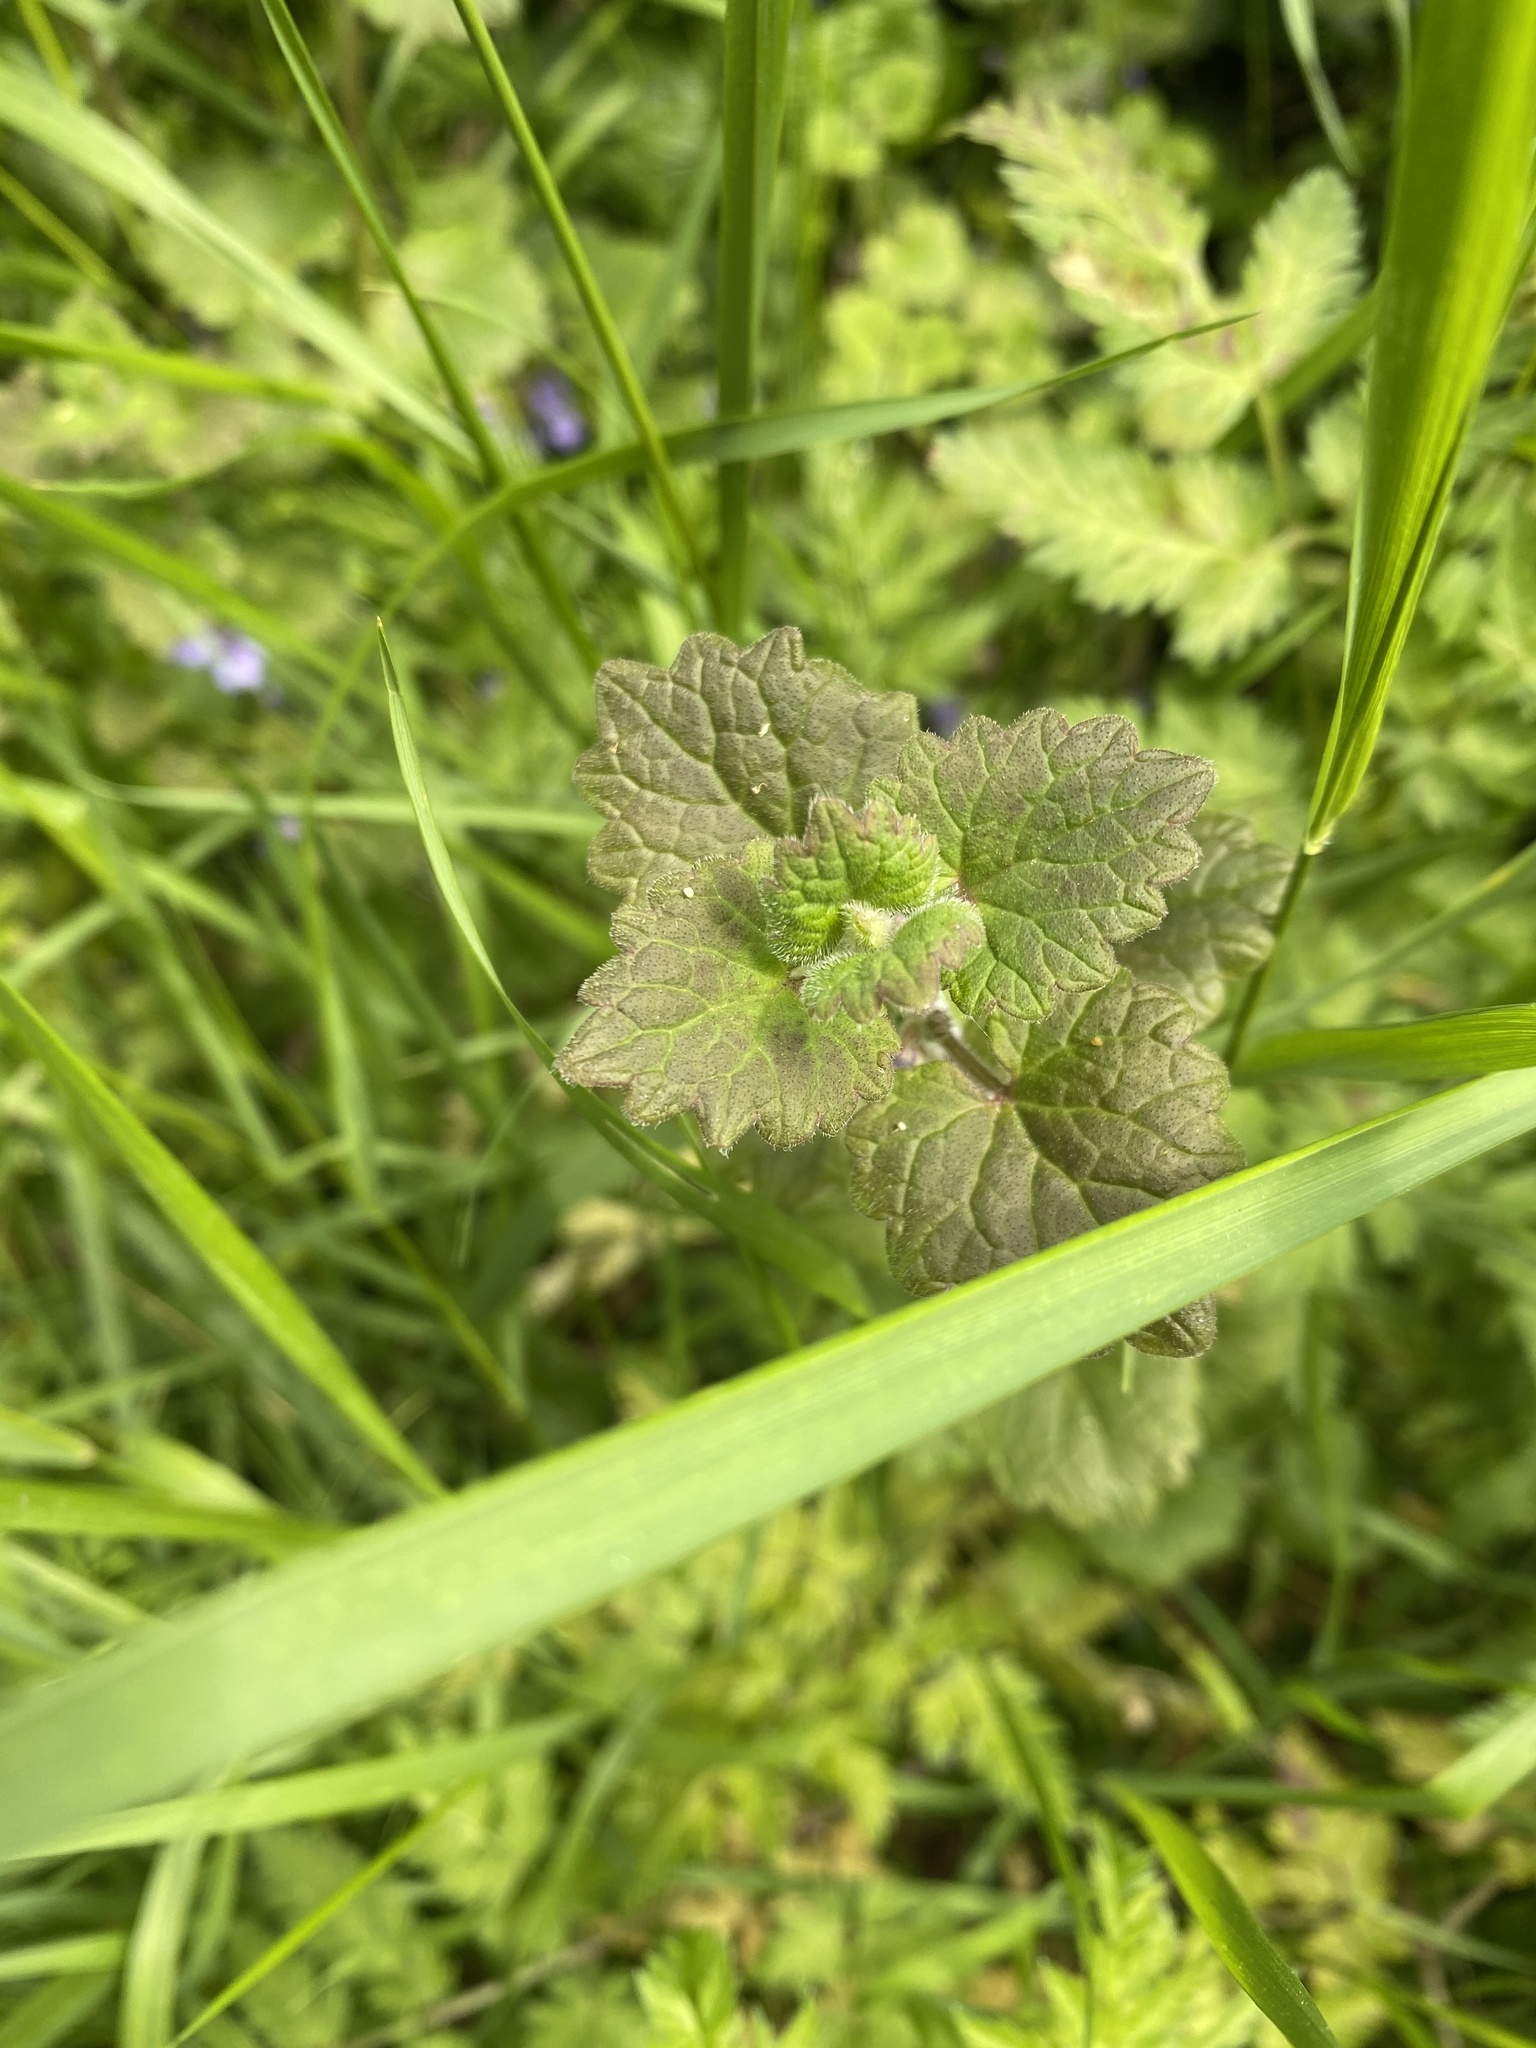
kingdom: Plantae
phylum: Tracheophyta
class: Magnoliopsida
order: Lamiales
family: Lamiaceae
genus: Glechoma
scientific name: Glechoma hederacea
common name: Ground ivy
